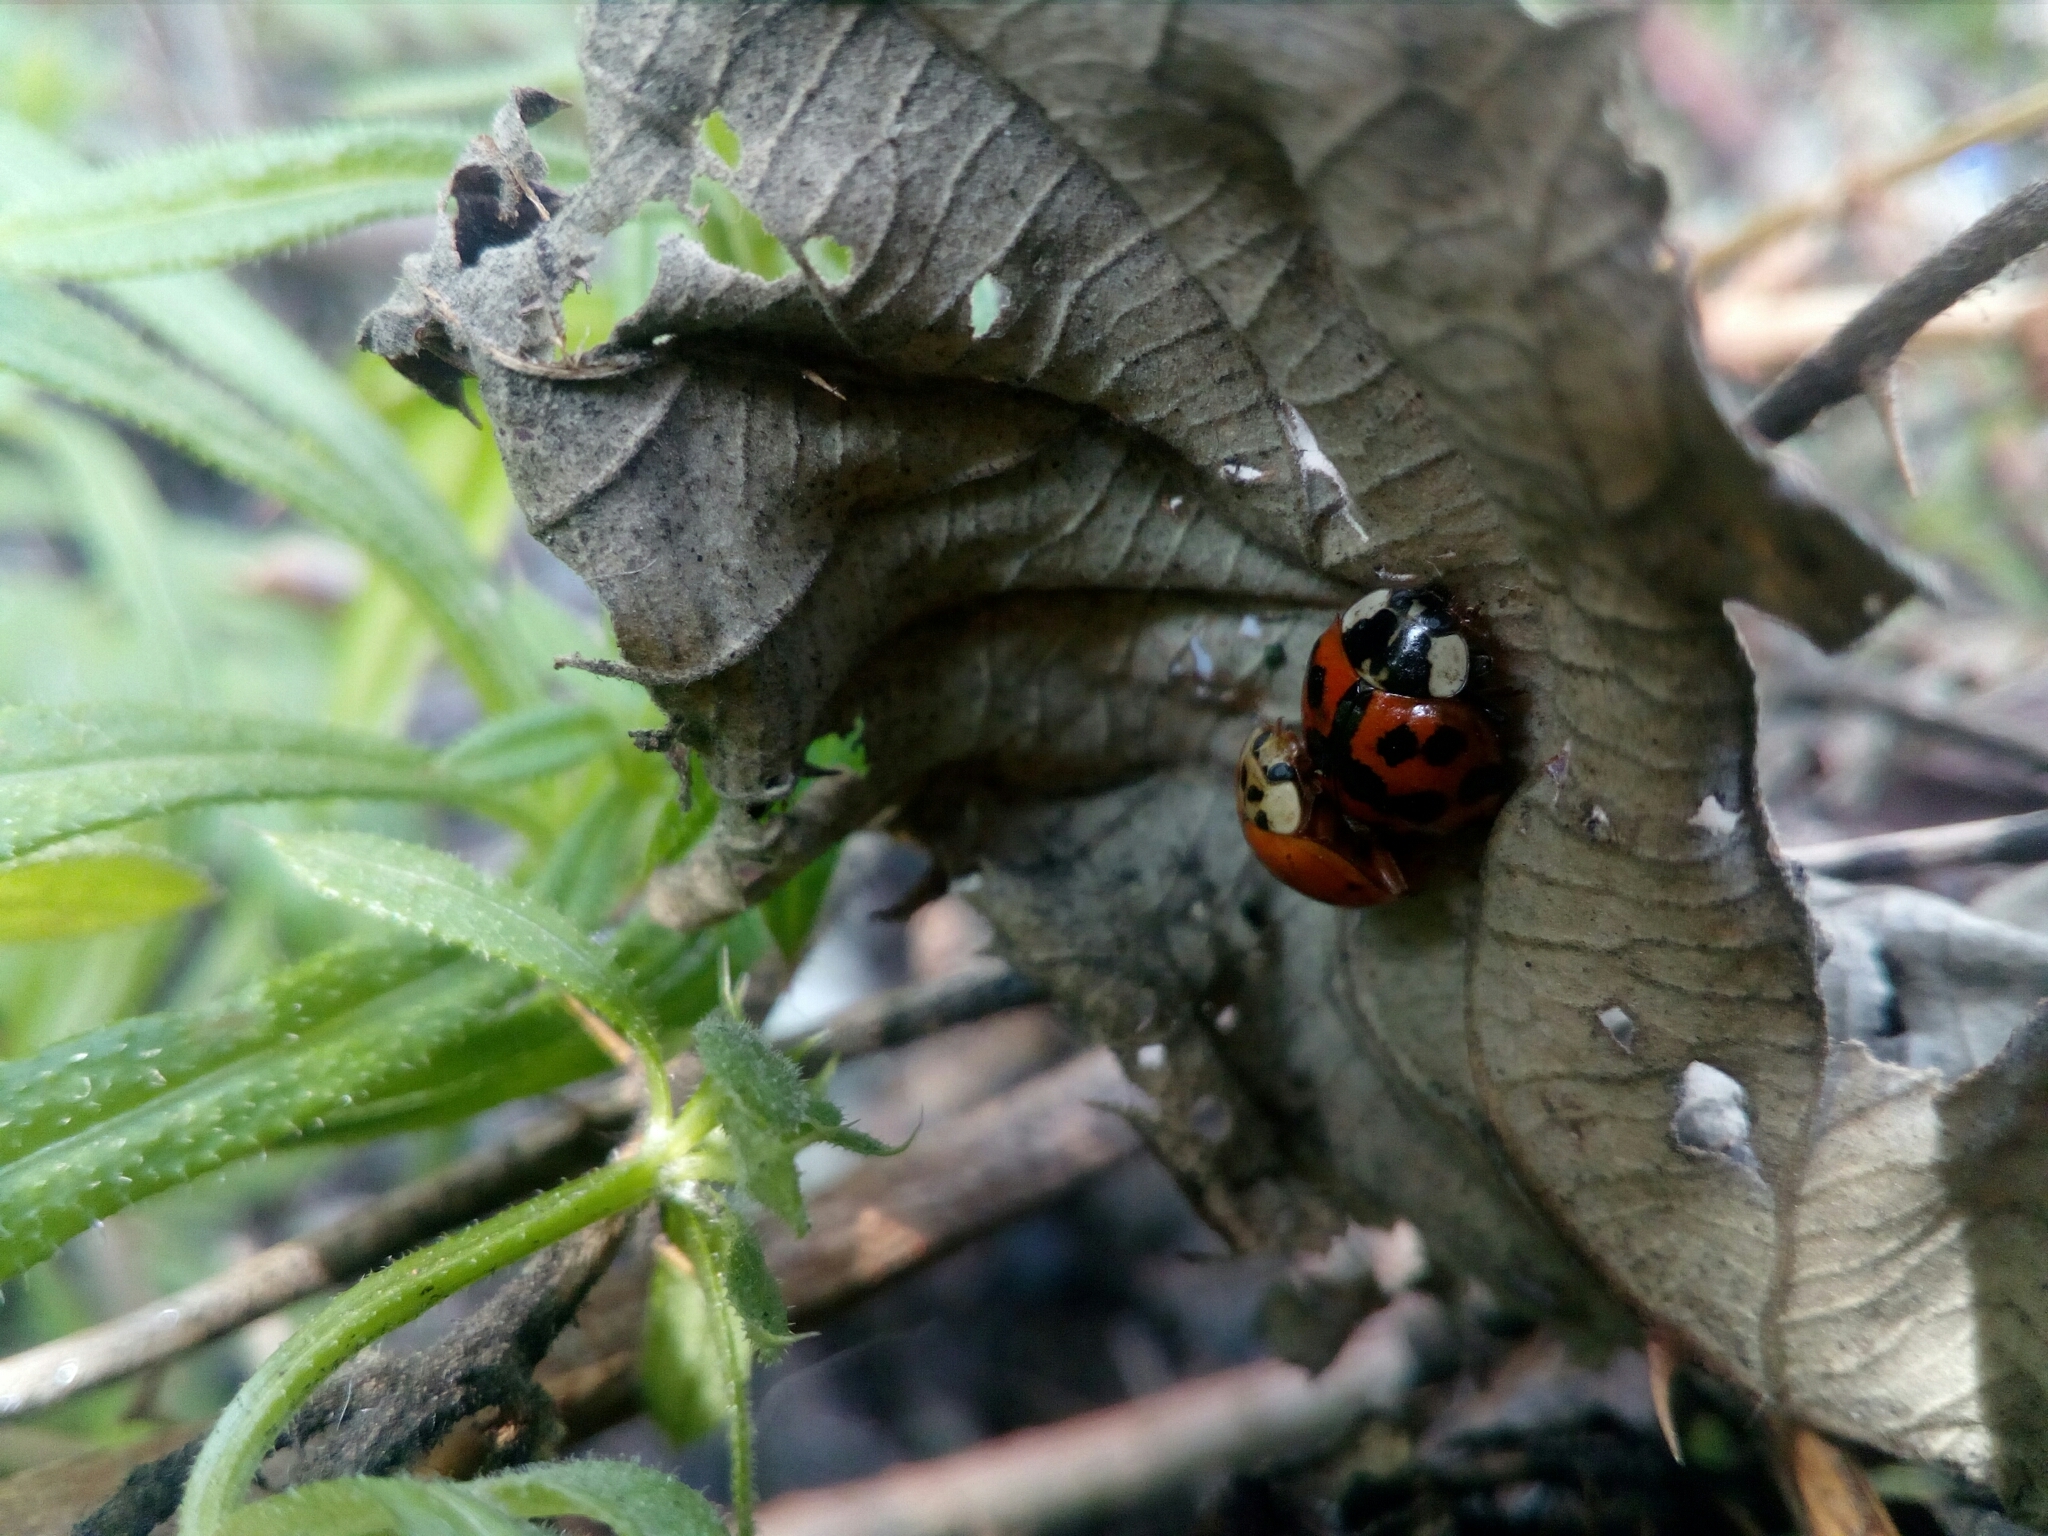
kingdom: Animalia
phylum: Arthropoda
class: Insecta
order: Coleoptera
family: Coccinellidae
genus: Harmonia
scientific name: Harmonia axyridis
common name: Harlequin ladybird
